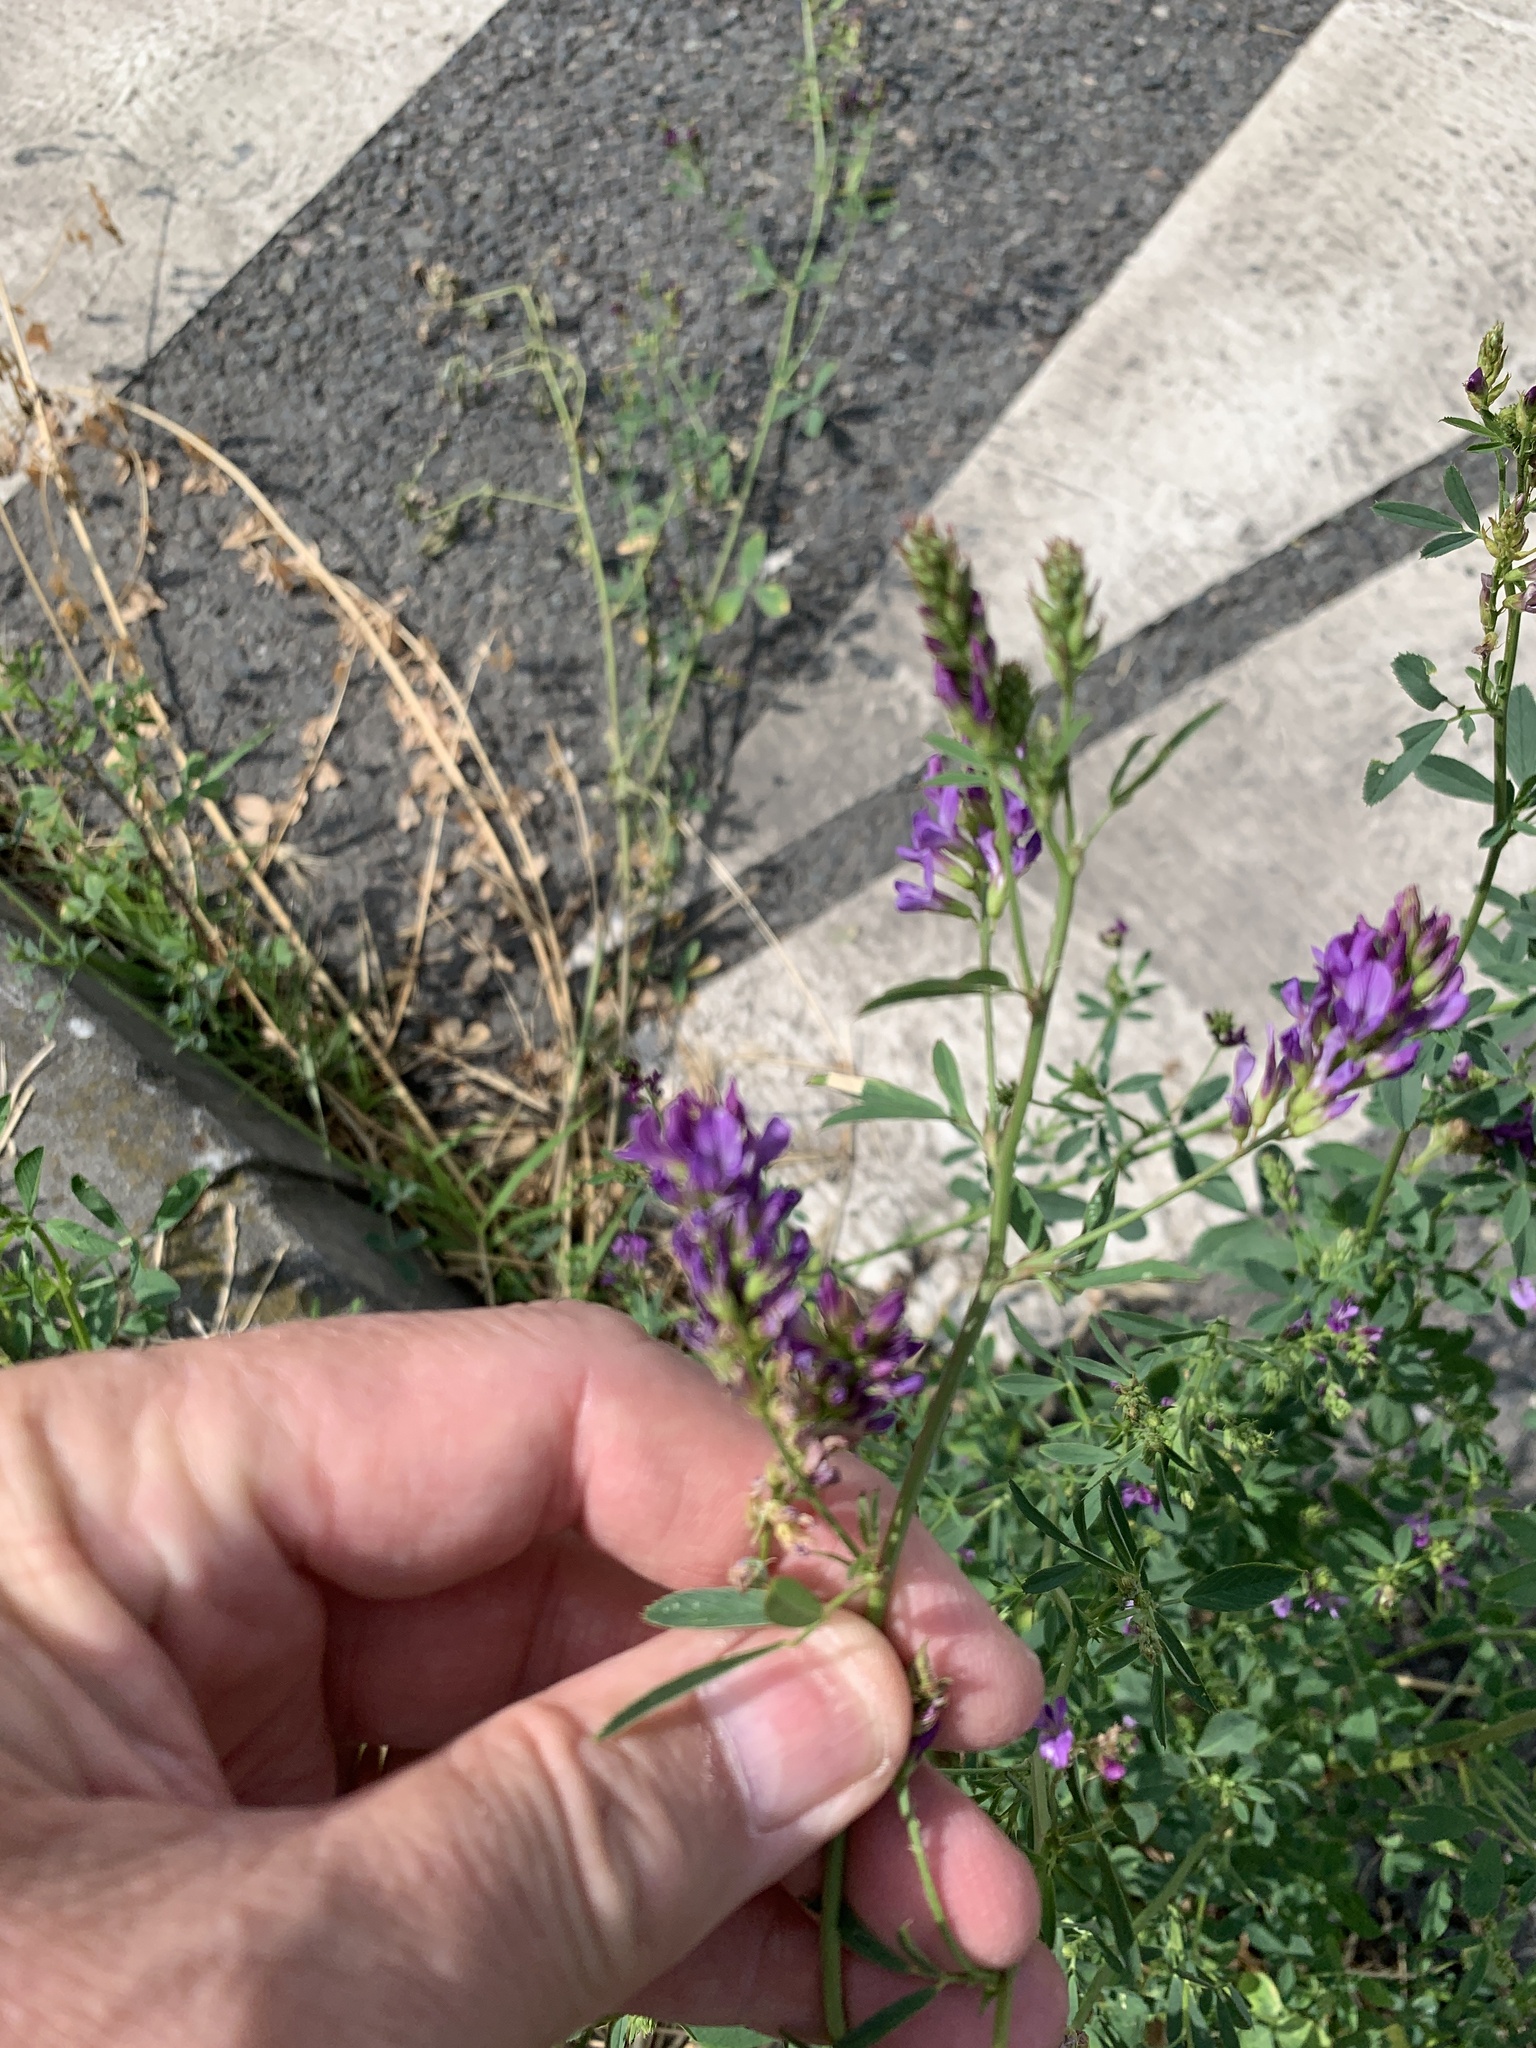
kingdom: Plantae
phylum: Tracheophyta
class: Magnoliopsida
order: Fabales
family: Fabaceae
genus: Medicago
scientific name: Medicago sativa
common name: Alfalfa
